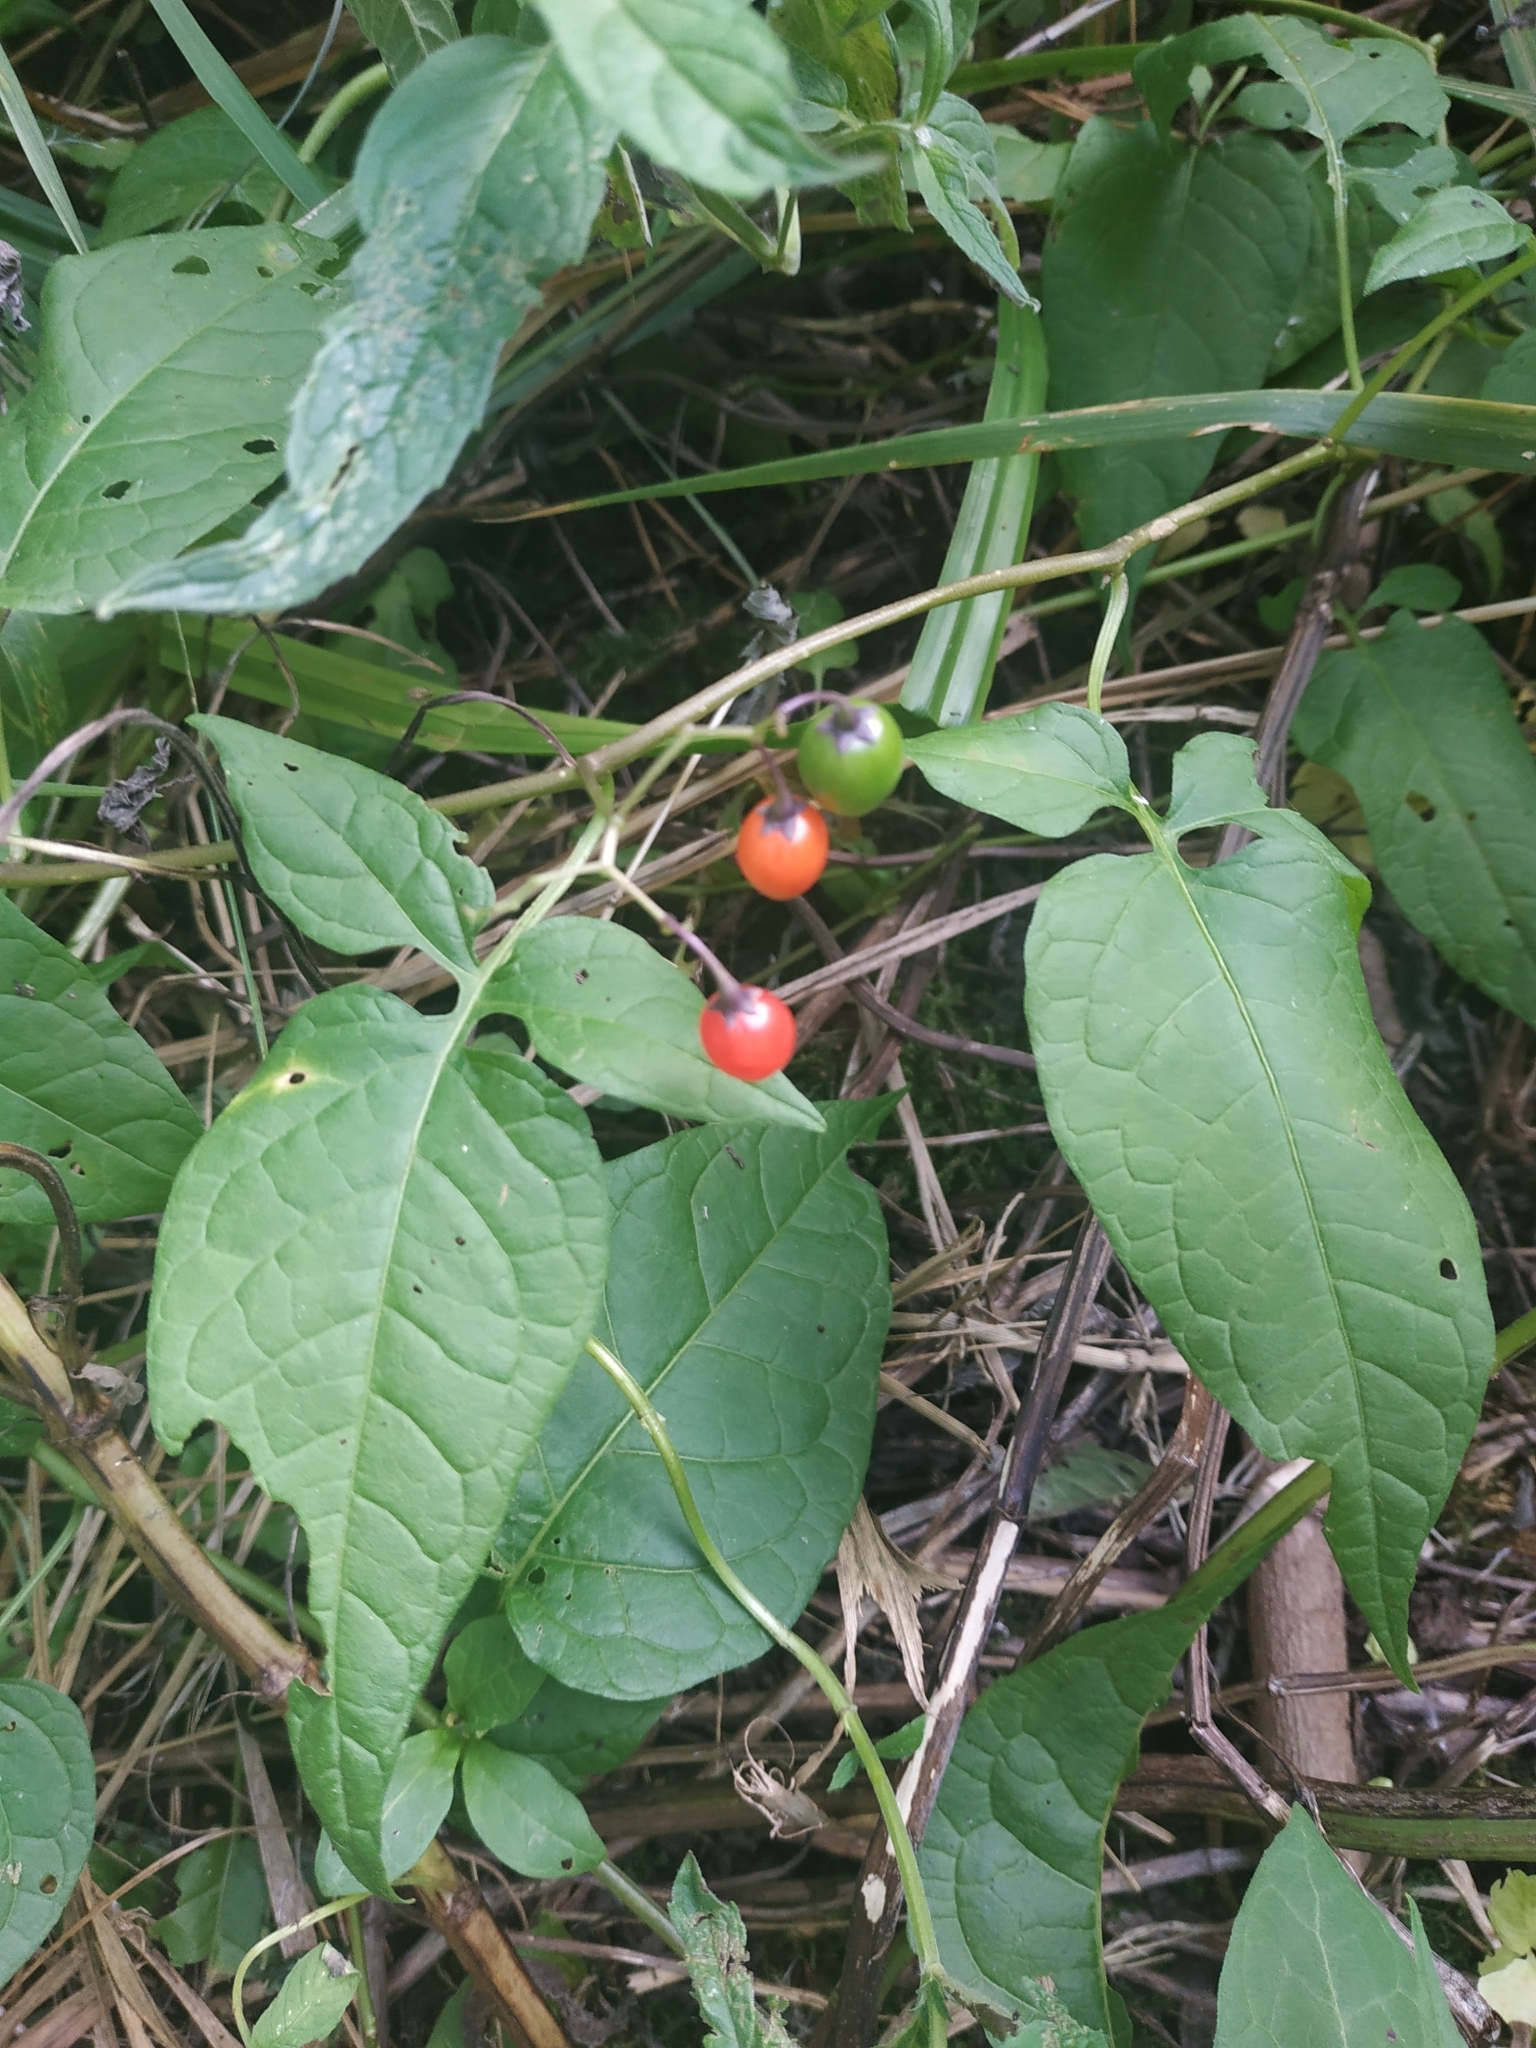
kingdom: Plantae
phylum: Tracheophyta
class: Magnoliopsida
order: Solanales
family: Solanaceae
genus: Solanum
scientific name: Solanum dulcamara
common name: Climbing nightshade
